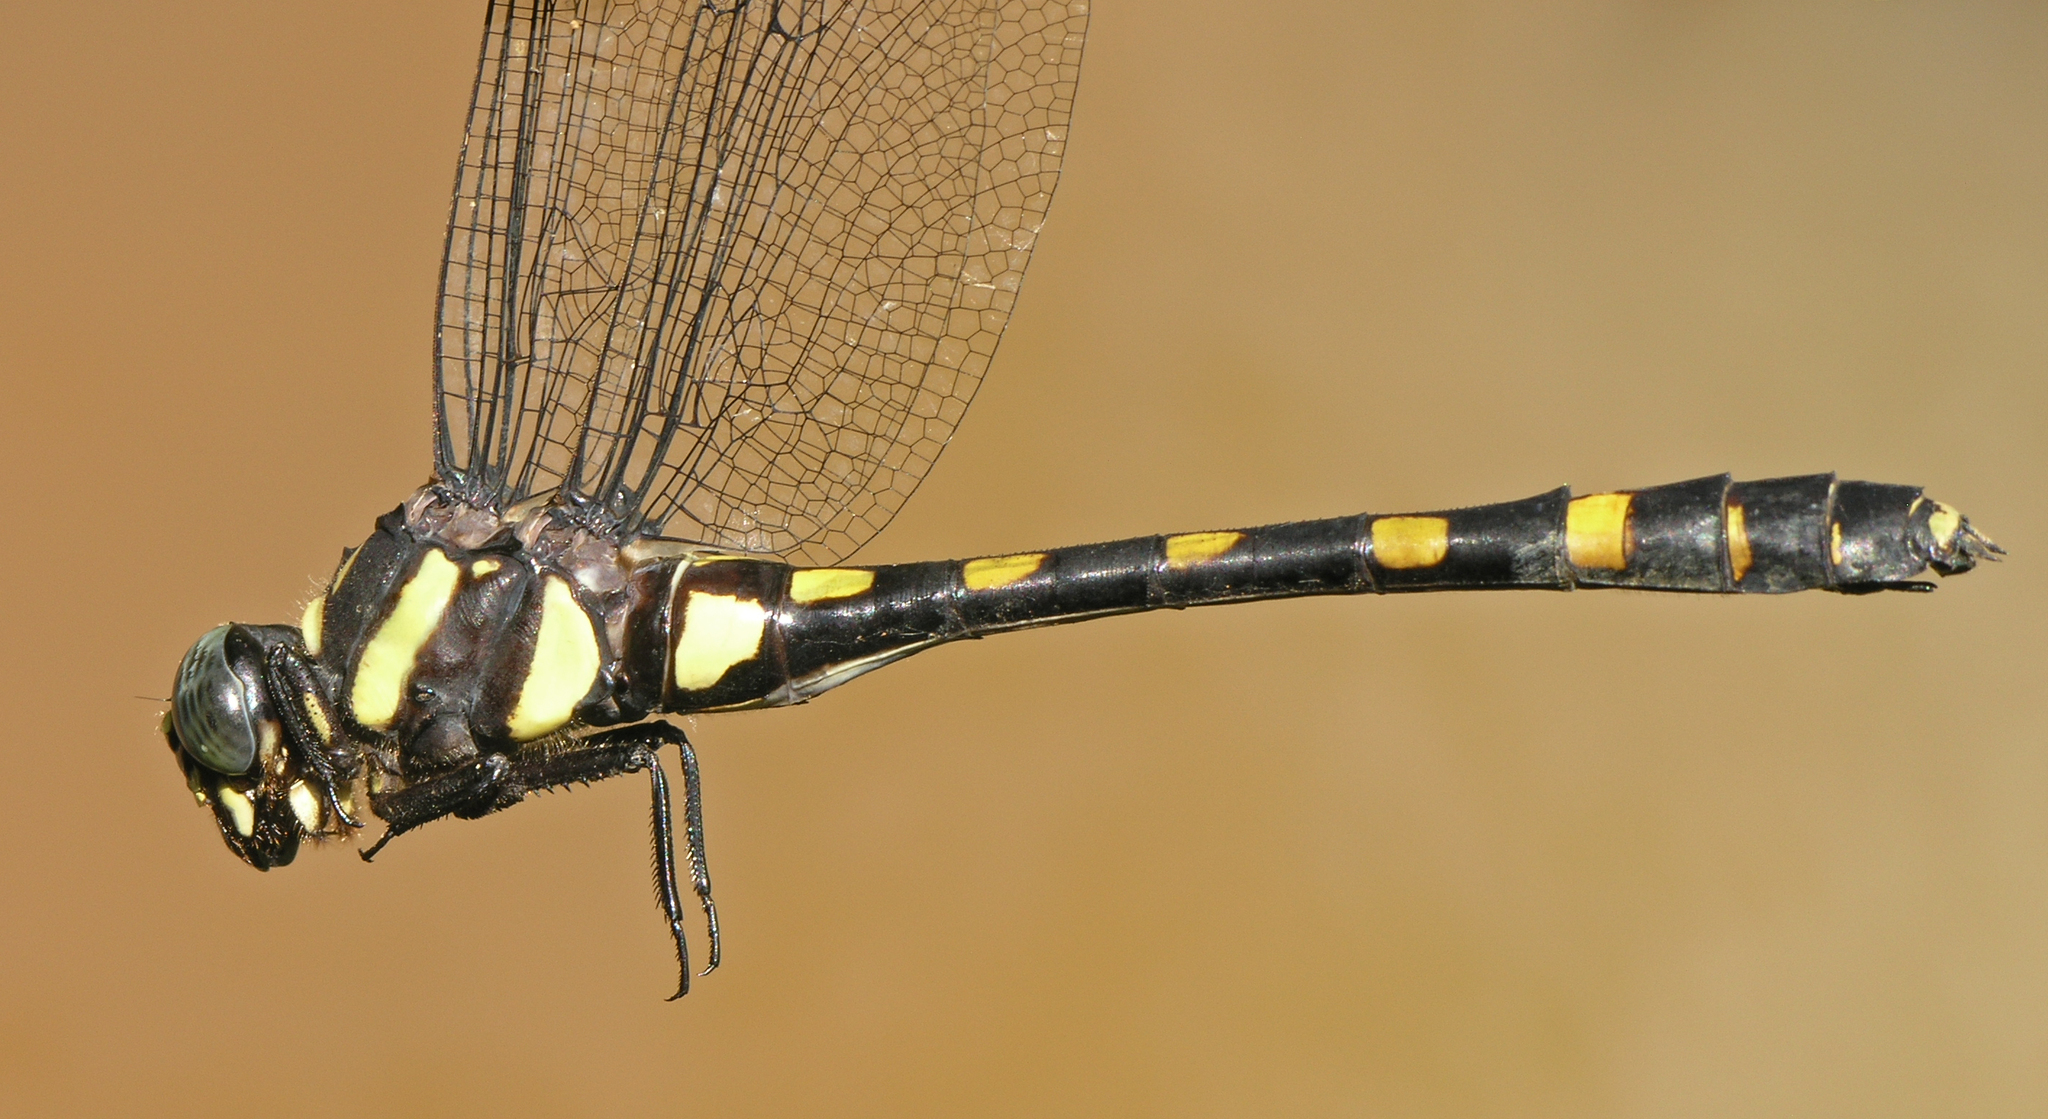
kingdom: Animalia
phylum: Arthropoda
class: Insecta
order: Odonata
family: Gomphidae
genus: Gomphidia
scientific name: Gomphidia abbotti
